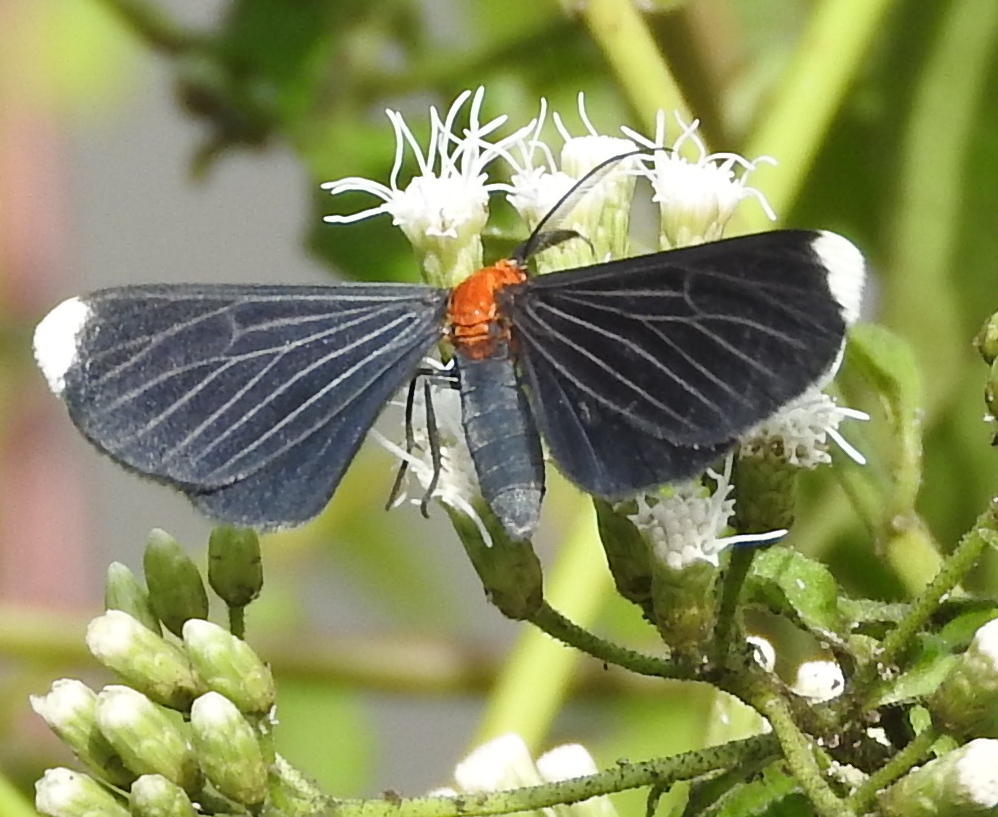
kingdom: Animalia
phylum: Arthropoda
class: Insecta
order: Lepidoptera
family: Geometridae
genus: Melanchroia
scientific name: Melanchroia chephise
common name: White-tipped black
